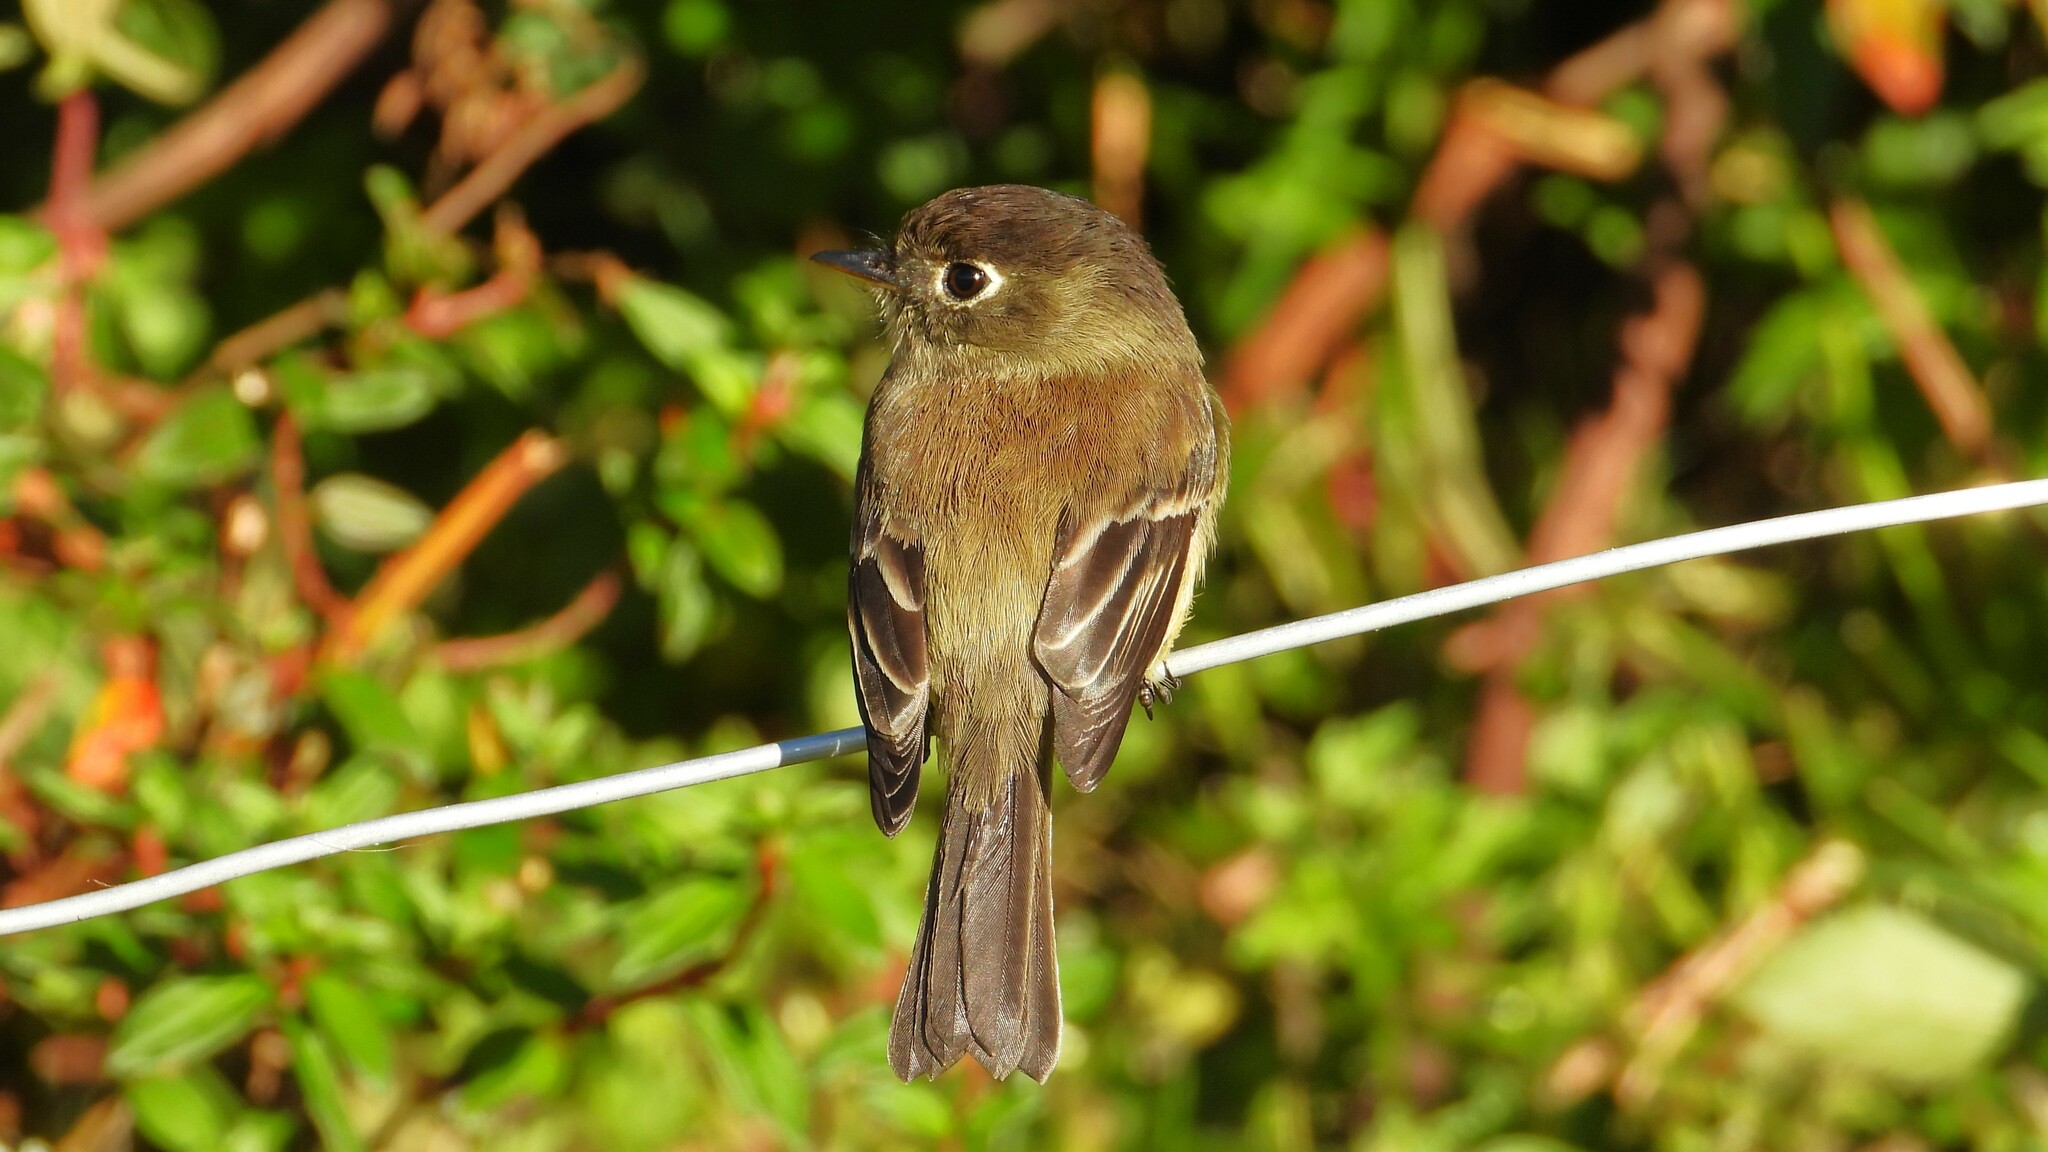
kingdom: Animalia
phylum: Chordata
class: Aves
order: Passeriformes
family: Tyrannidae
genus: Empidonax
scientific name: Empidonax atriceps
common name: Black-capped flycatcher
